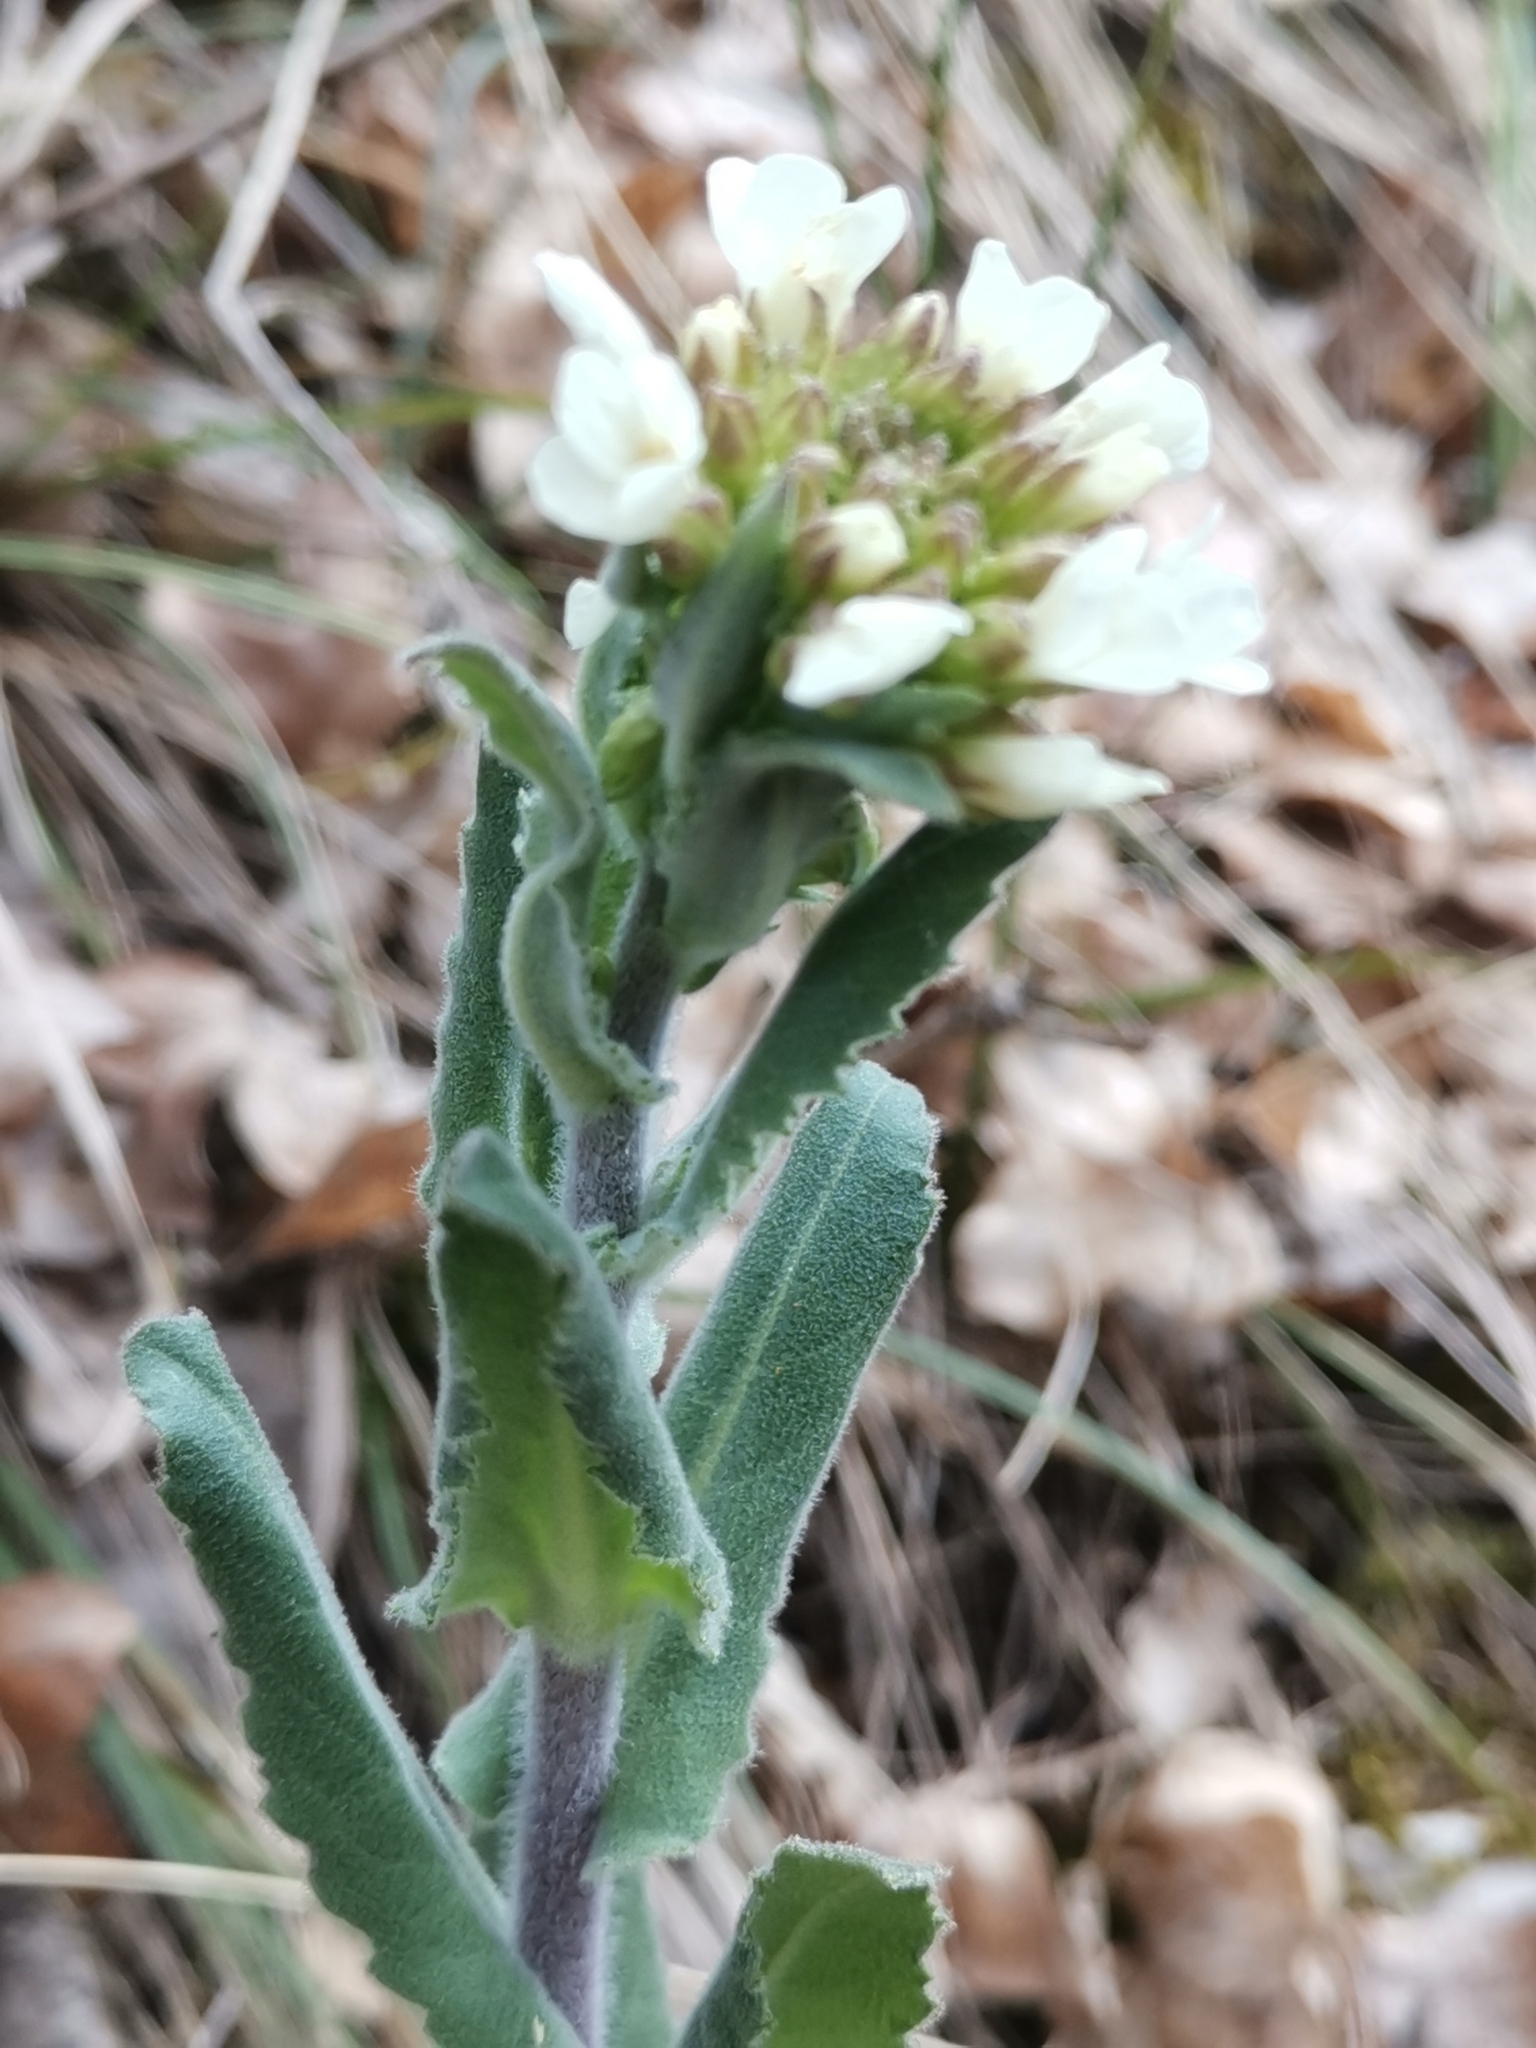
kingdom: Plantae
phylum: Tracheophyta
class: Magnoliopsida
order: Brassicales
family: Brassicaceae
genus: Pseudoturritis
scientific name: Pseudoturritis turrita
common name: Tower cress
